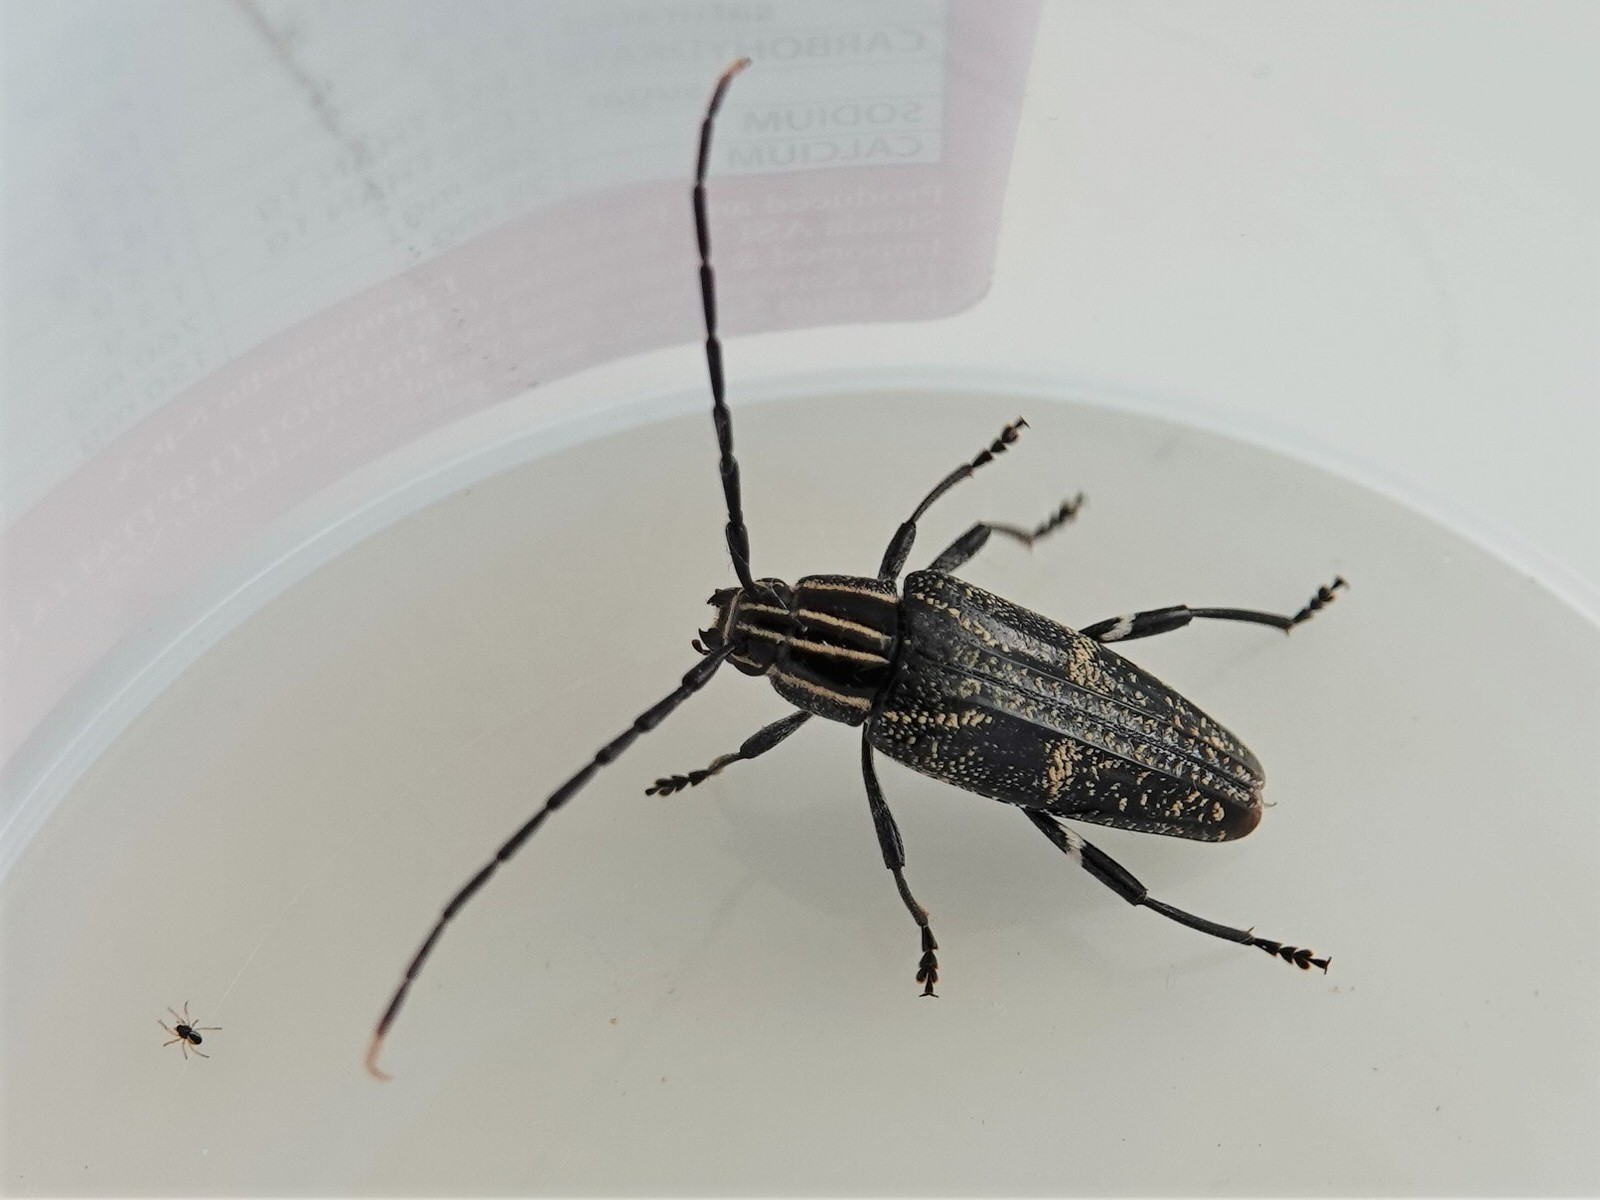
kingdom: Animalia
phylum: Arthropoda
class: Insecta
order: Coleoptera
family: Cerambycidae
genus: Coptomma
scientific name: Coptomma variegatum
